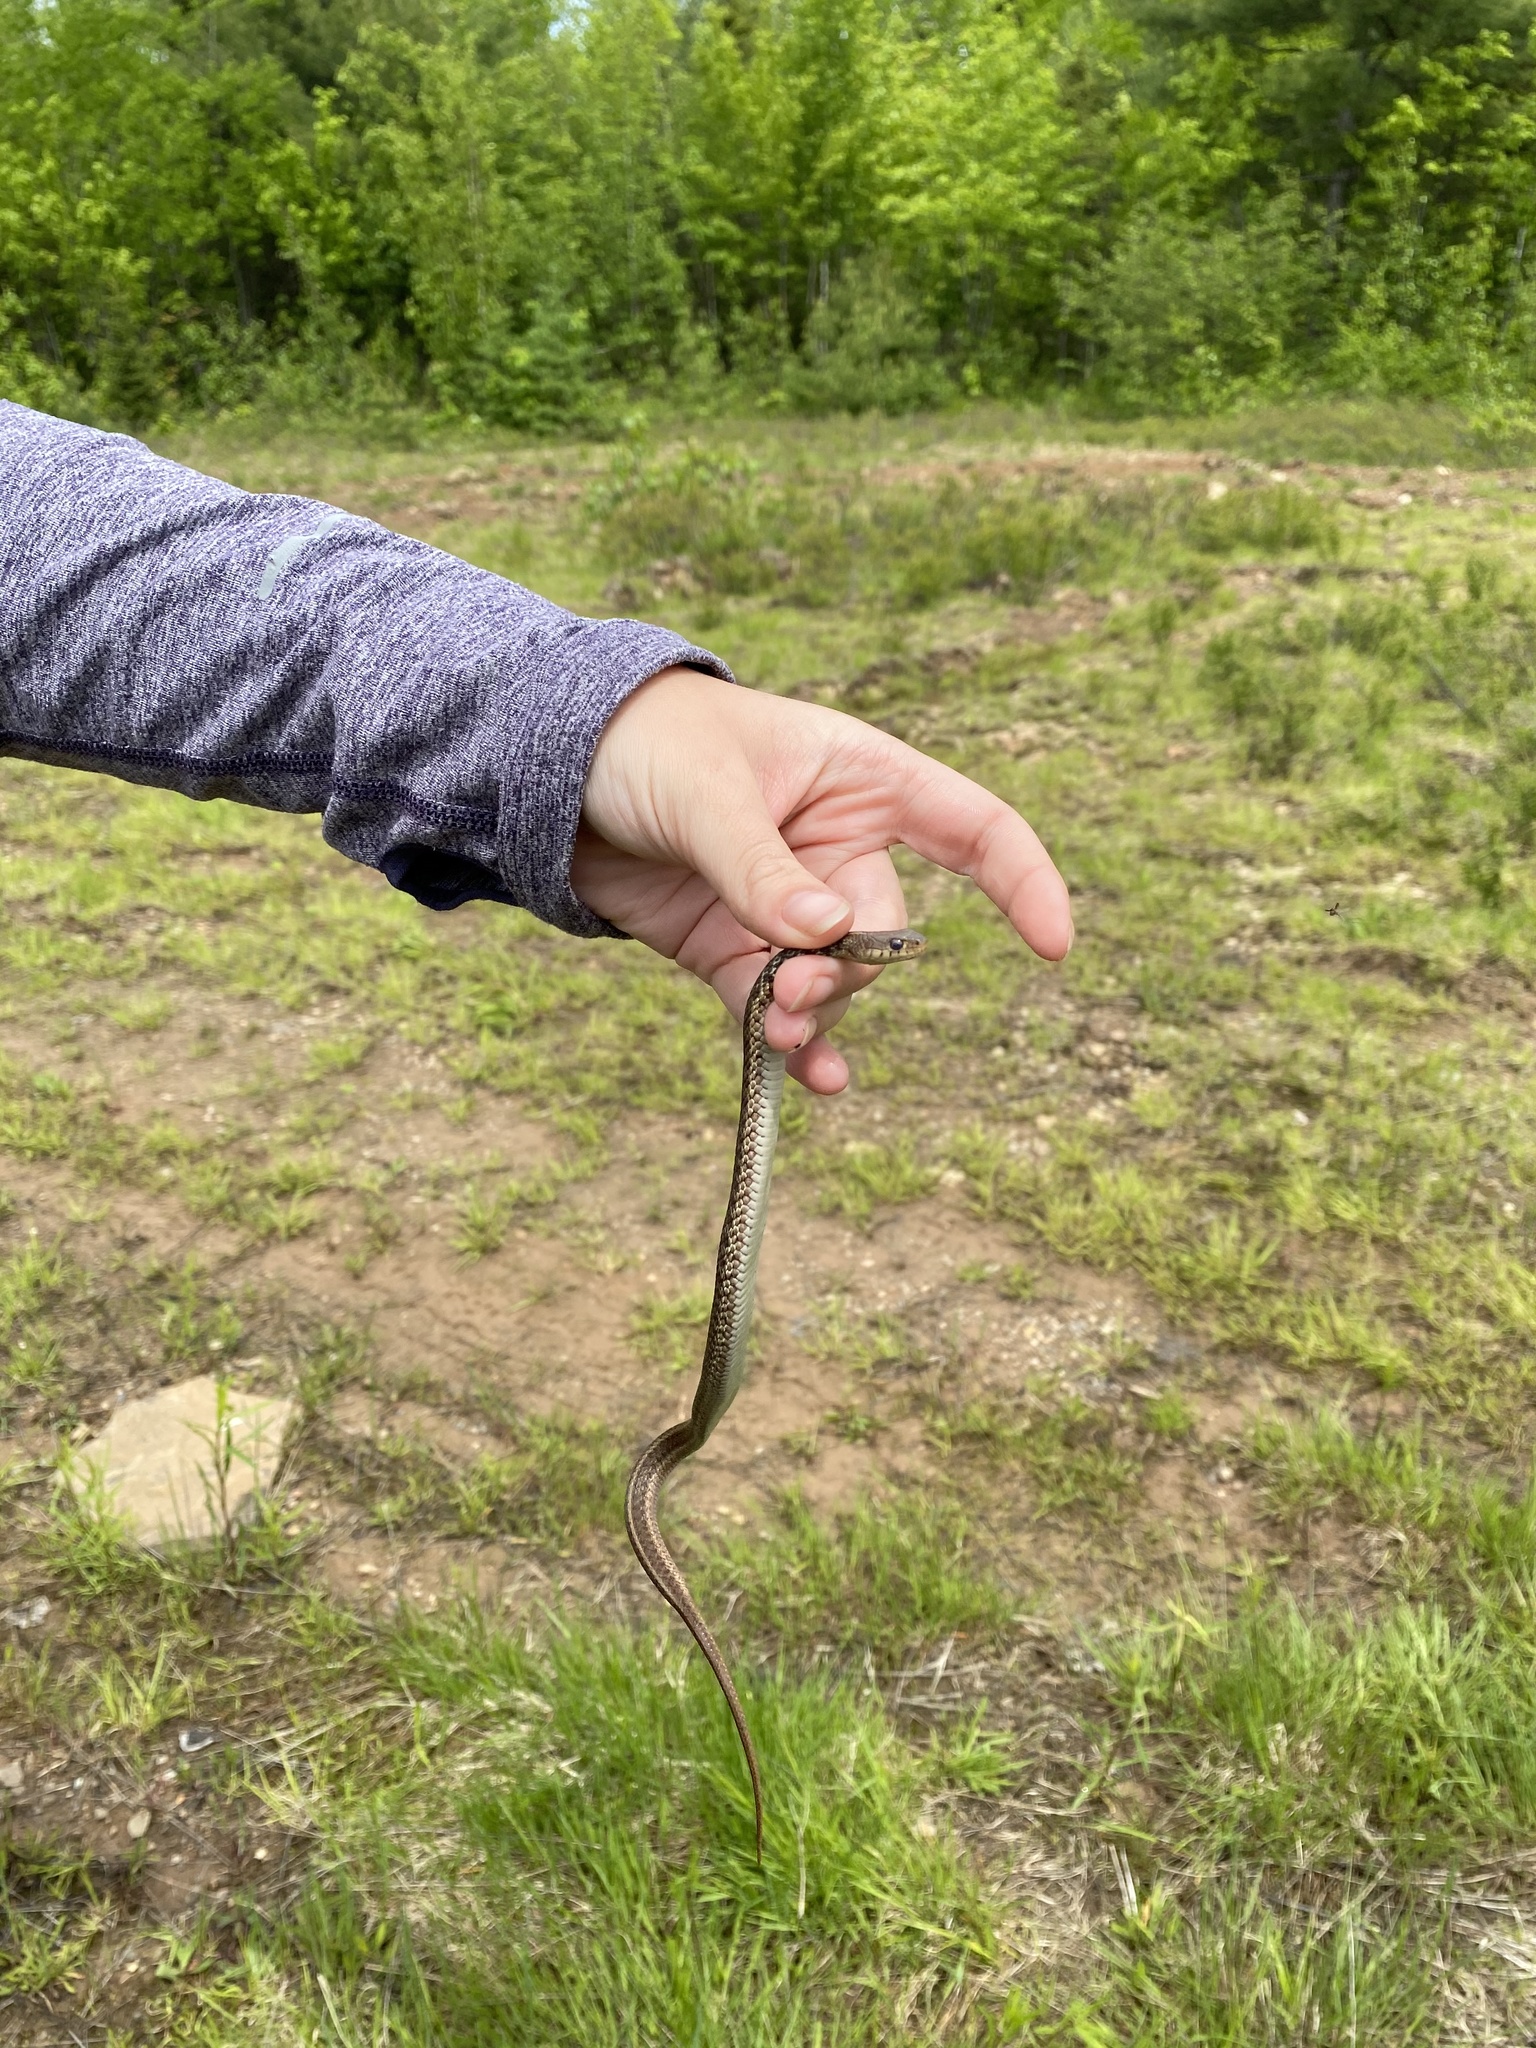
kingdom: Animalia
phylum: Chordata
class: Squamata
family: Colubridae
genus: Thamnophis
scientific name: Thamnophis sirtalis
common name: Common garter snake
